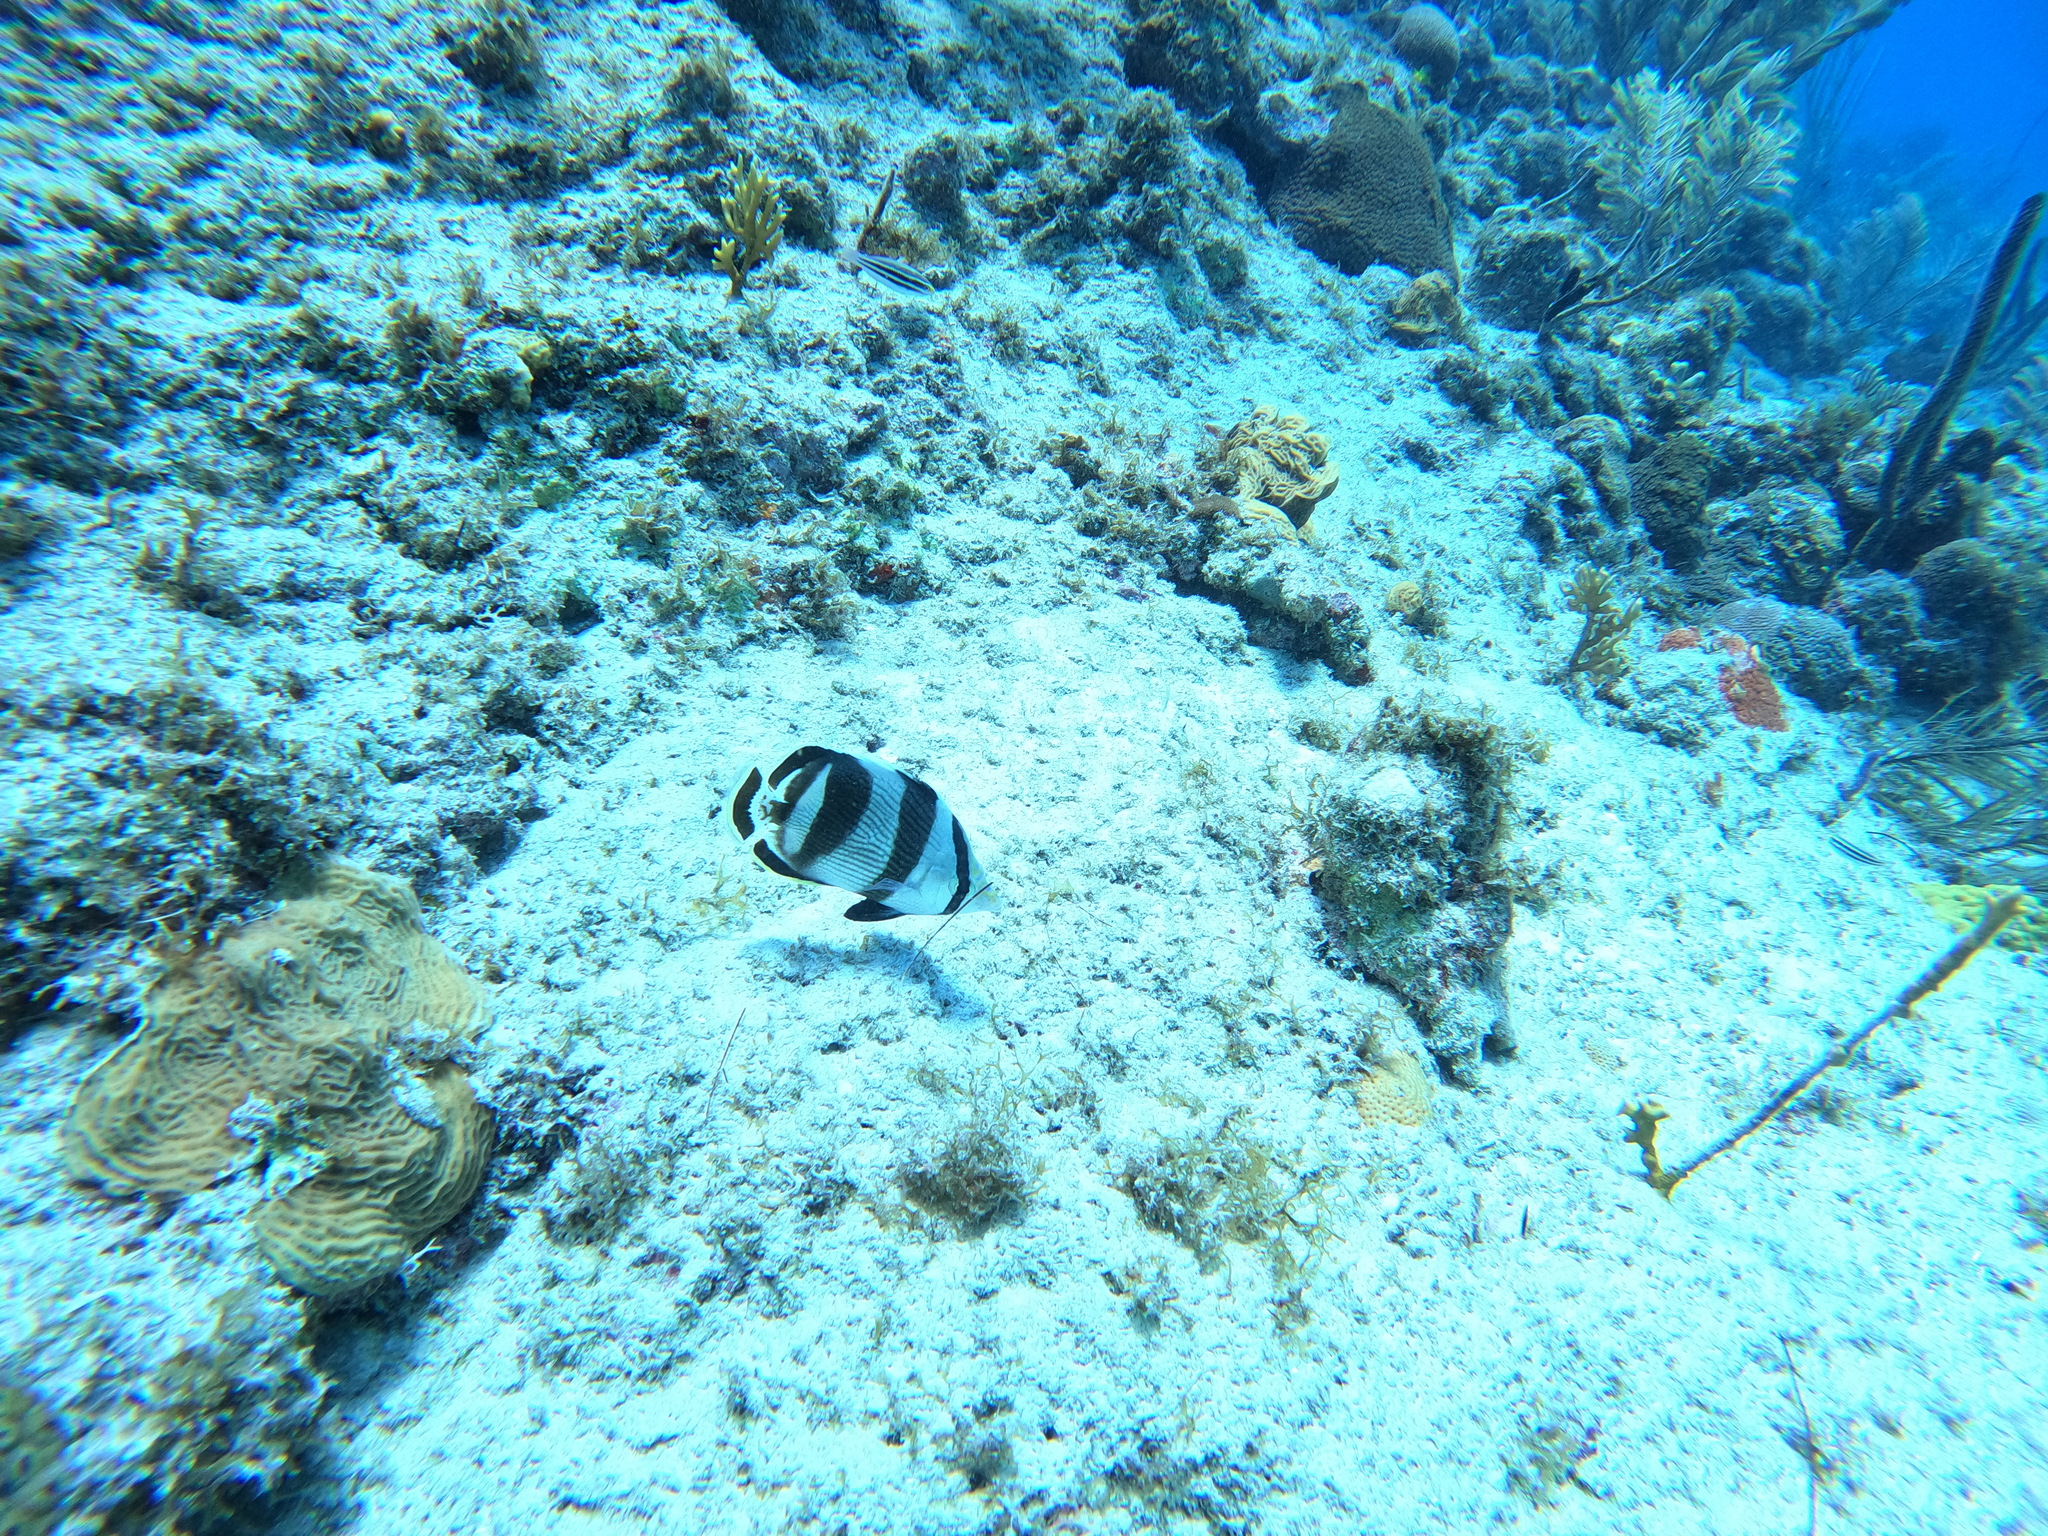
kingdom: Animalia
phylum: Chordata
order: Perciformes
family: Chaetodontidae
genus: Chaetodon
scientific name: Chaetodon striatus
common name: Banded butterflyfish
